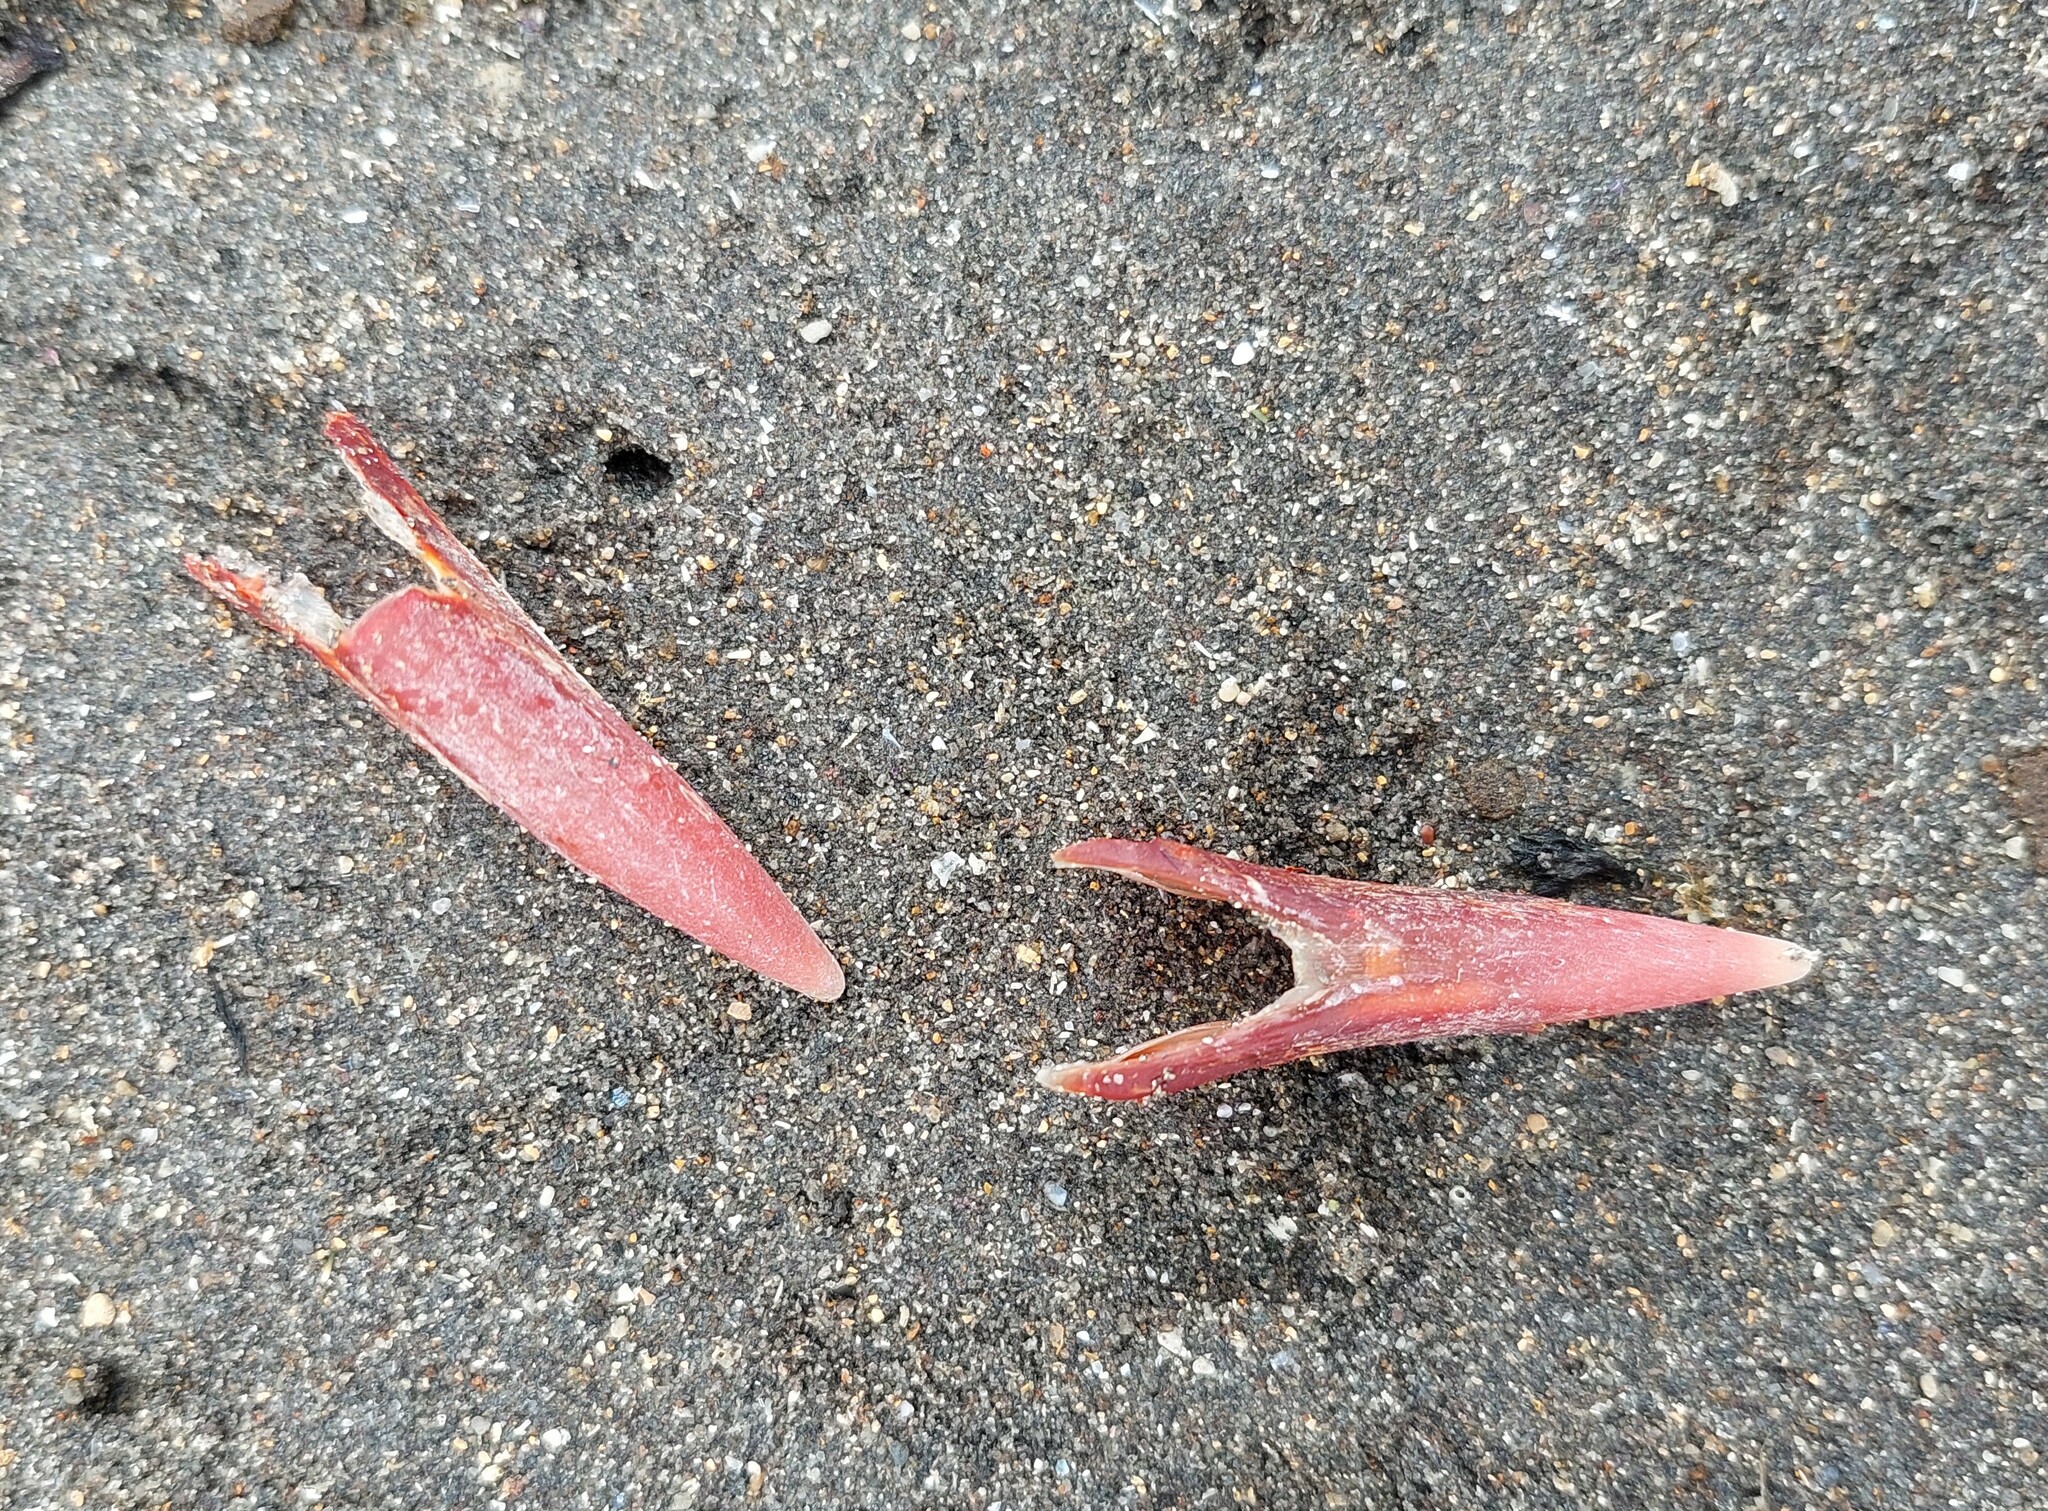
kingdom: Animalia
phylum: Chordata
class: Aves
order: Gruiformes
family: Rallidae
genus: Porphyrio
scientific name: Porphyrio melanotus
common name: Australasian swamphen
